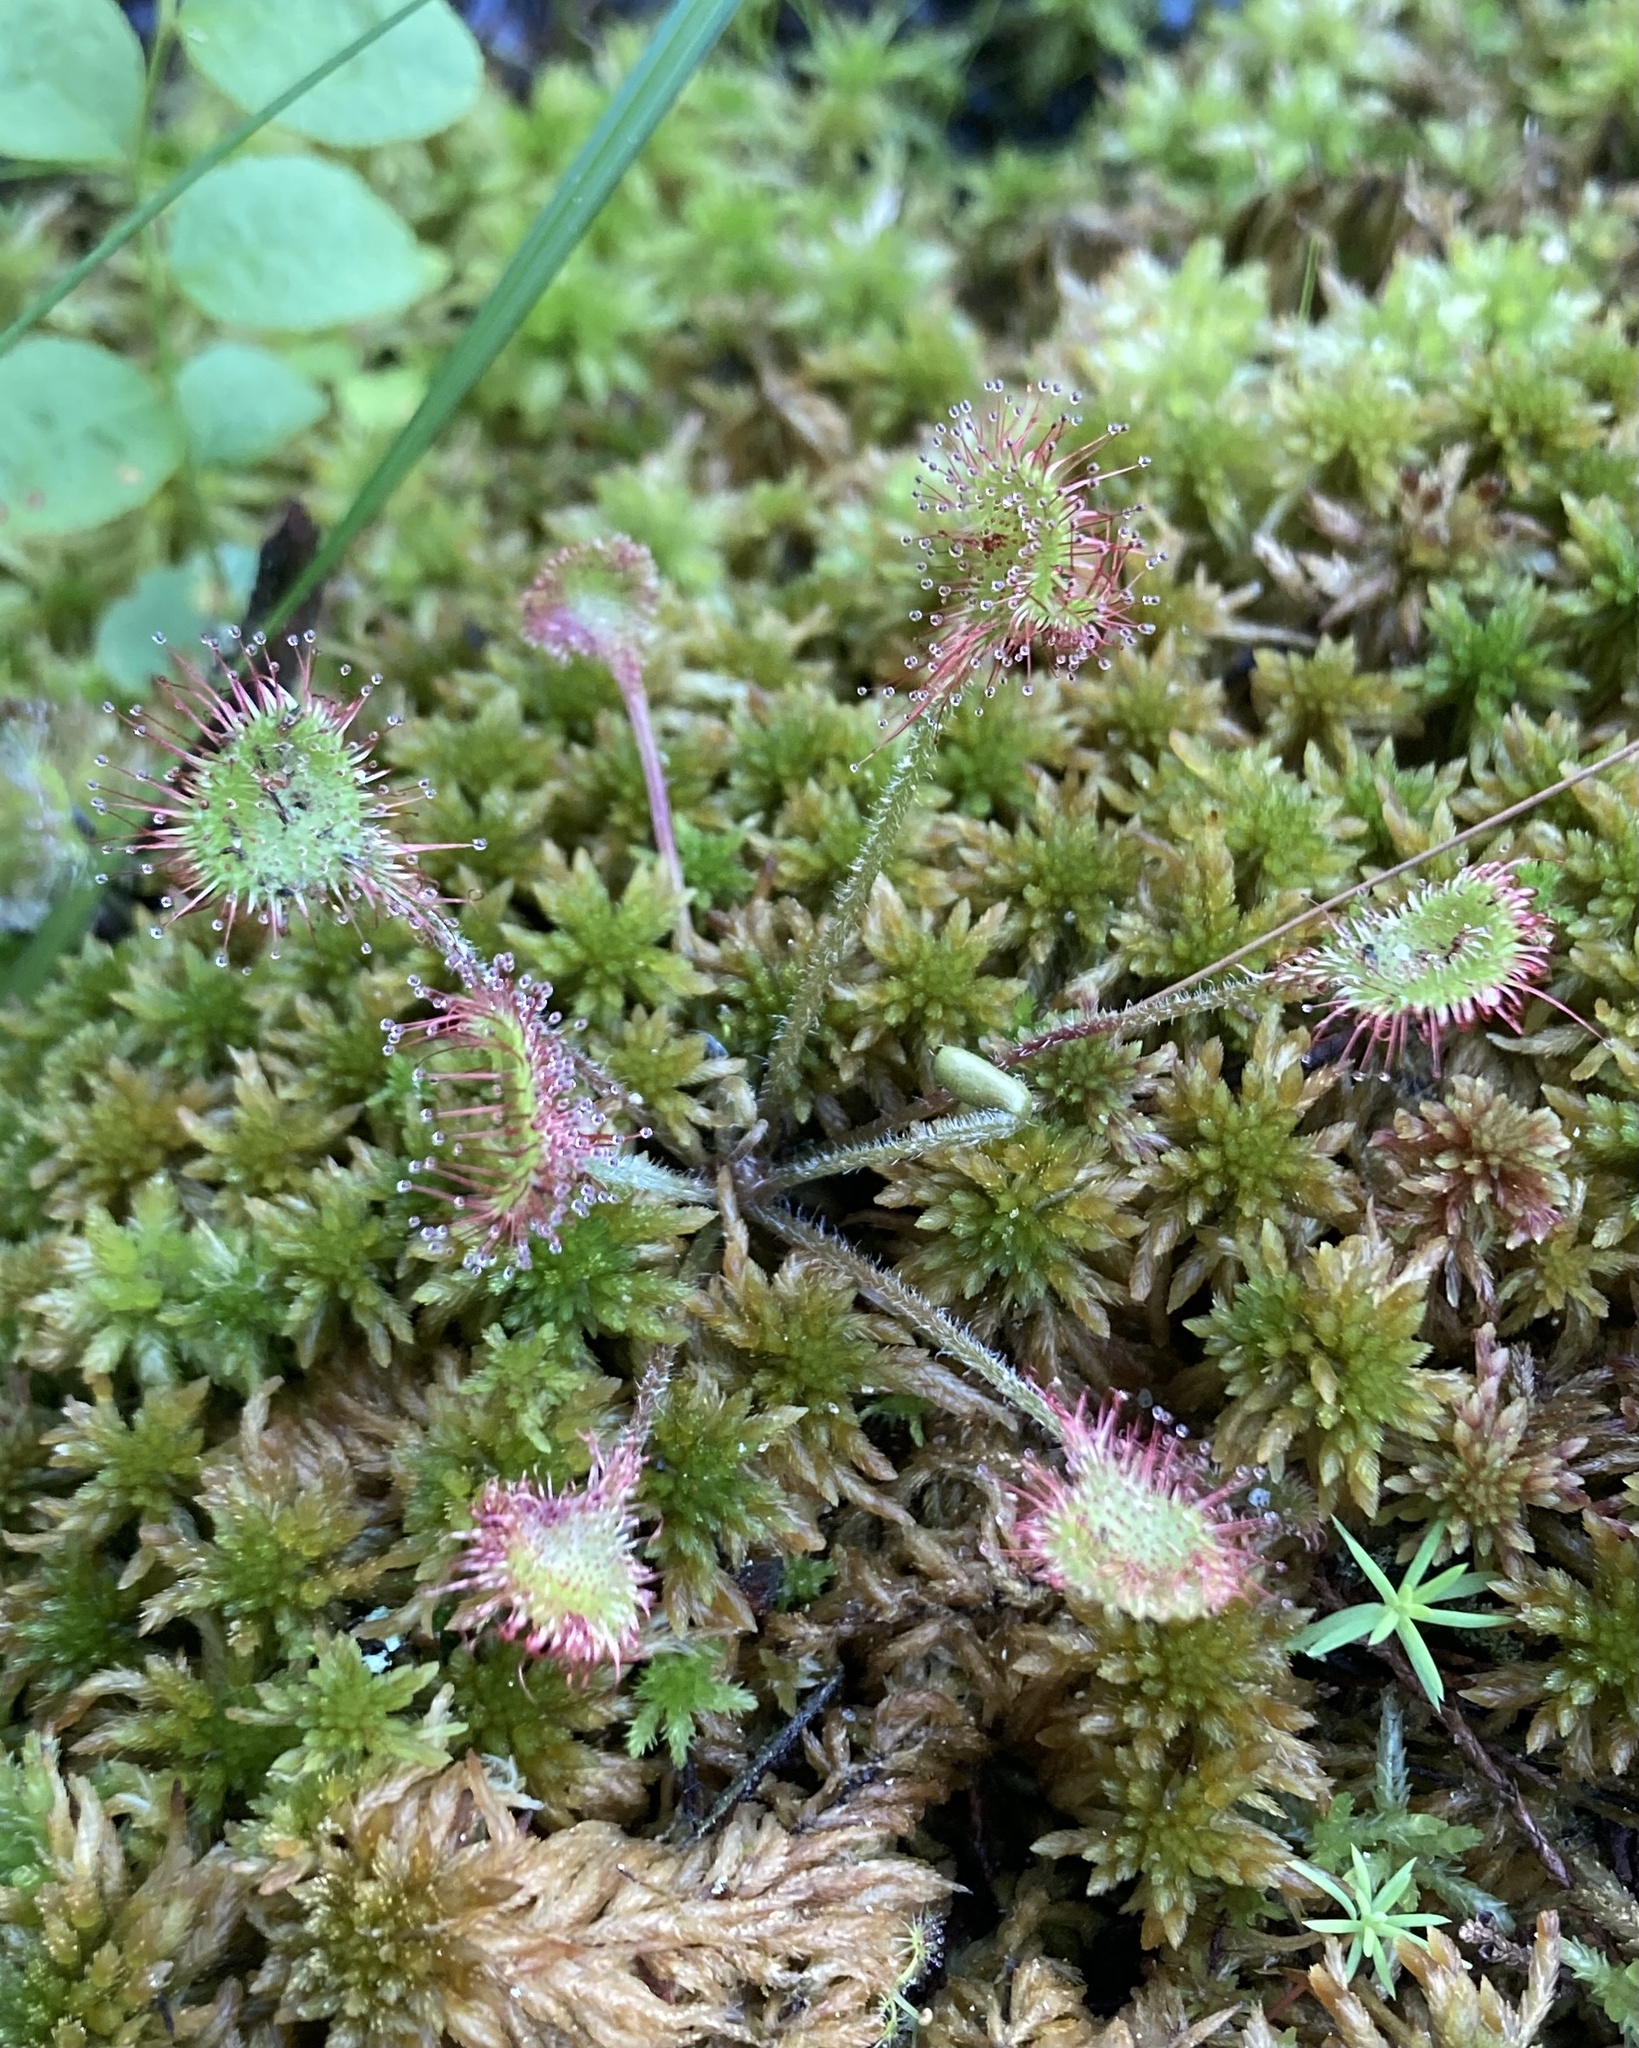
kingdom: Plantae
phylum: Tracheophyta
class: Magnoliopsida
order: Caryophyllales
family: Droseraceae
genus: Drosera
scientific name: Drosera rotundifolia
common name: Round-leaved sundew
